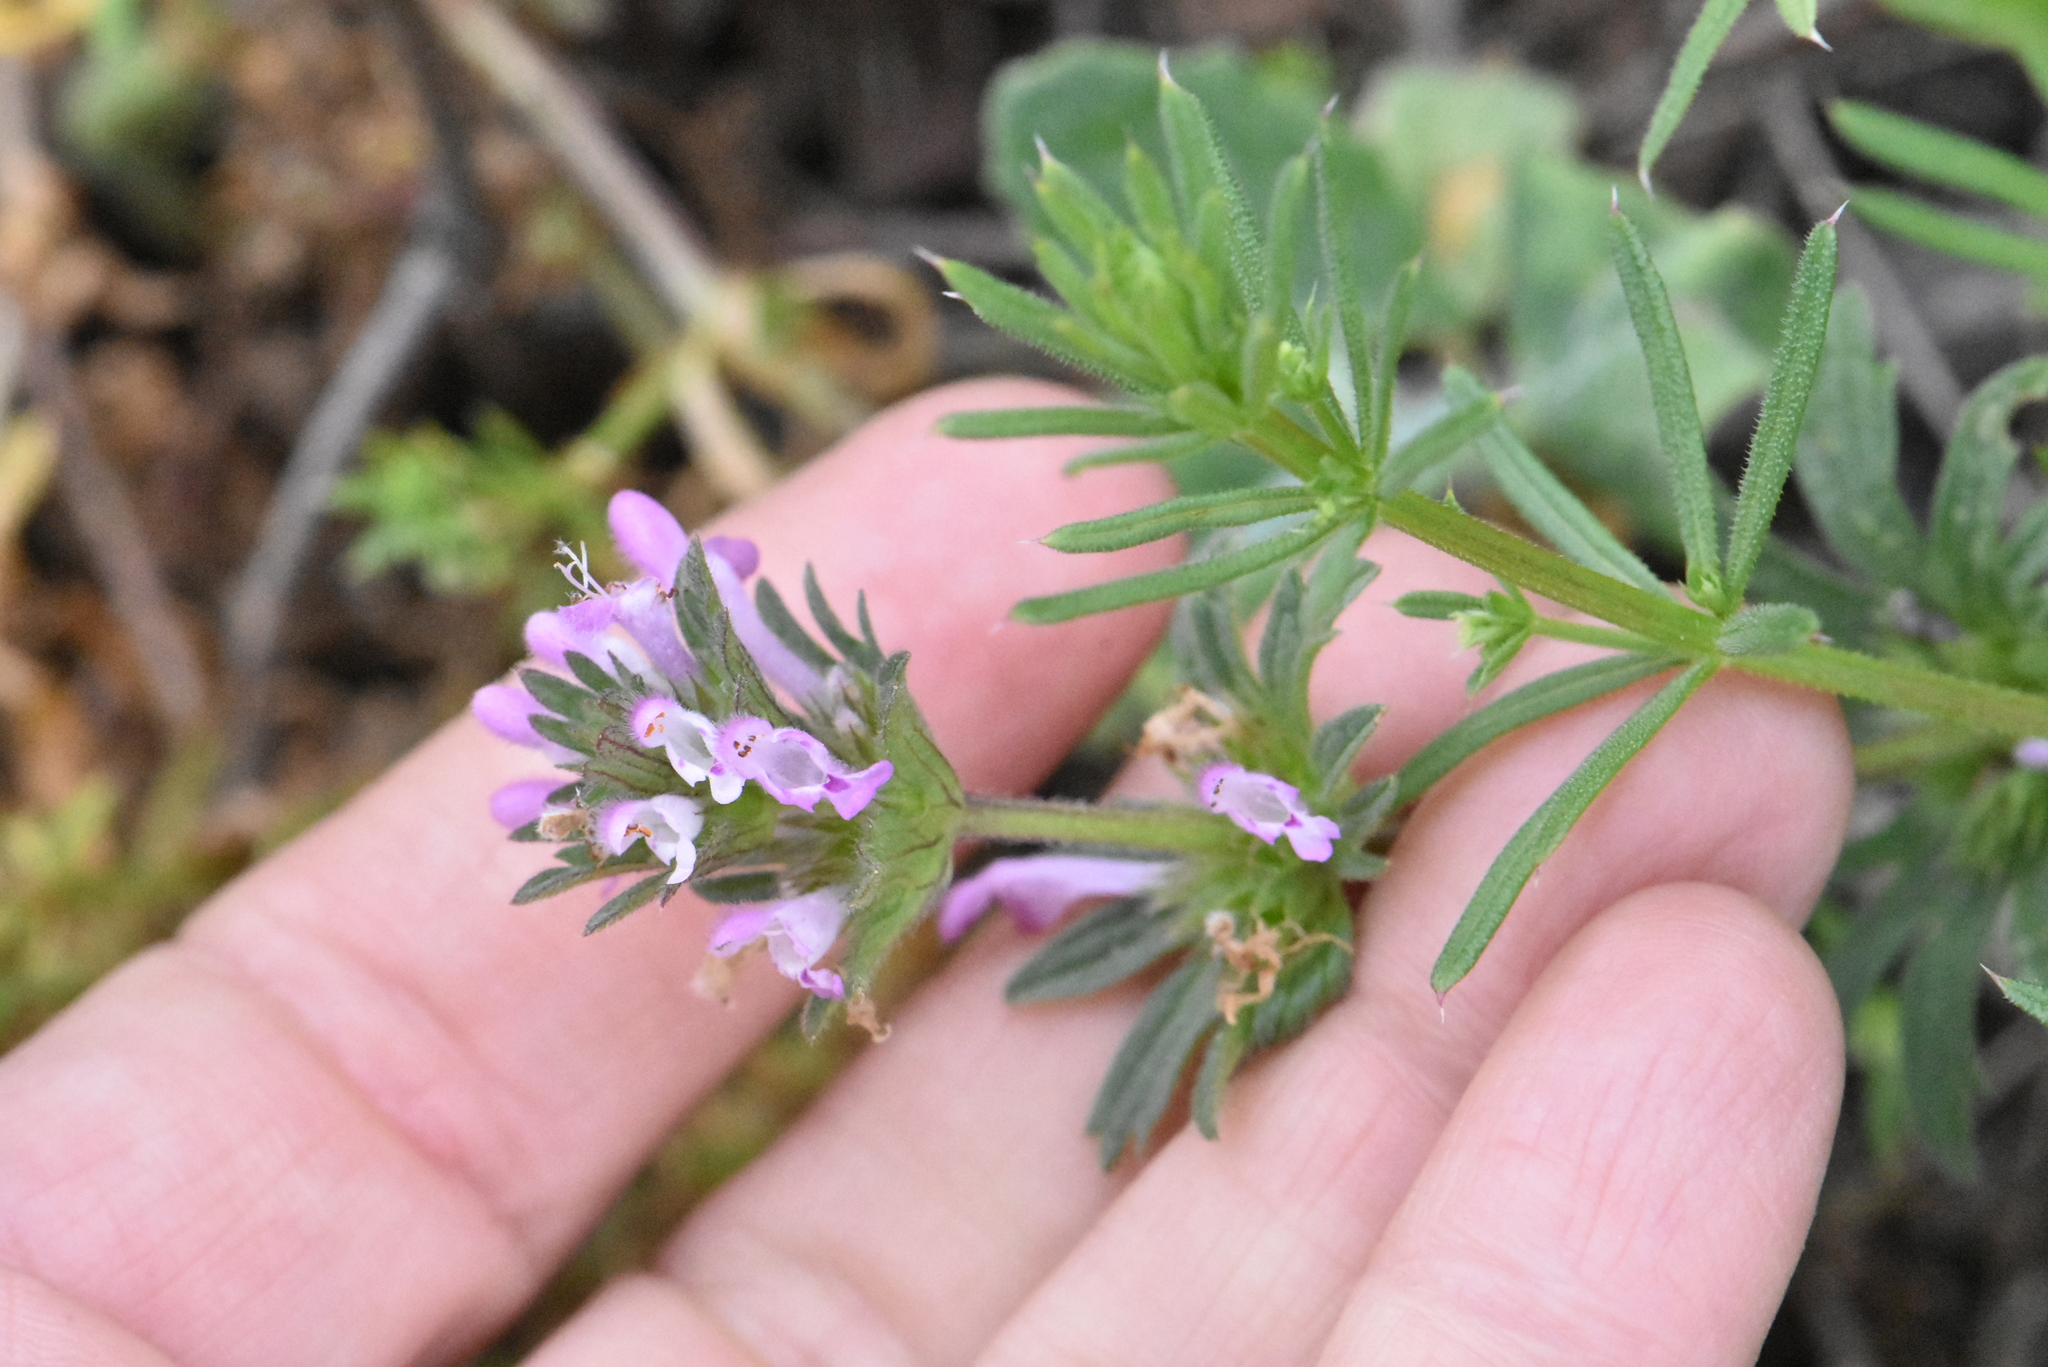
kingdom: Plantae
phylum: Tracheophyta
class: Magnoliopsida
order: Lamiales
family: Lamiaceae
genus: Lamium
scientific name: Lamium amplexicaule
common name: Henbit dead-nettle
